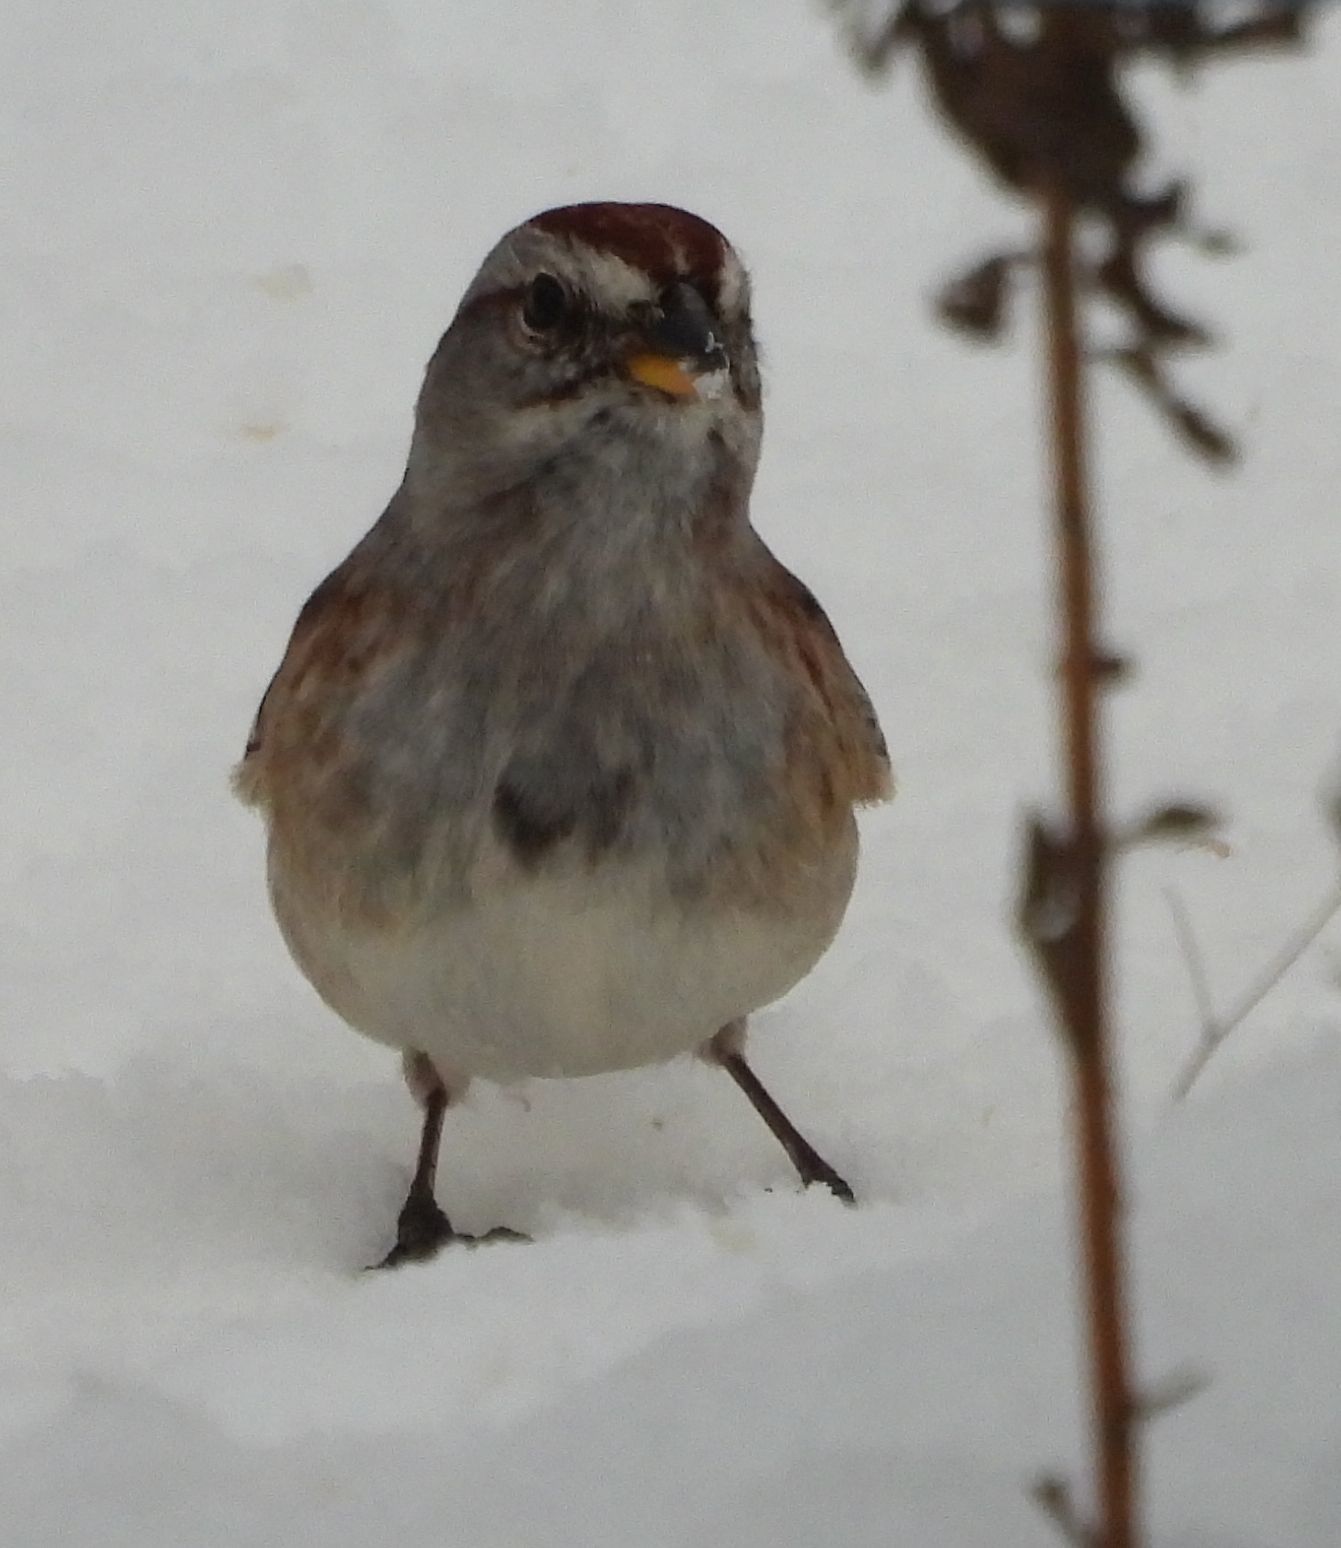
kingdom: Animalia
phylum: Chordata
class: Aves
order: Passeriformes
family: Passerellidae
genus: Spizelloides
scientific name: Spizelloides arborea
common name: American tree sparrow
